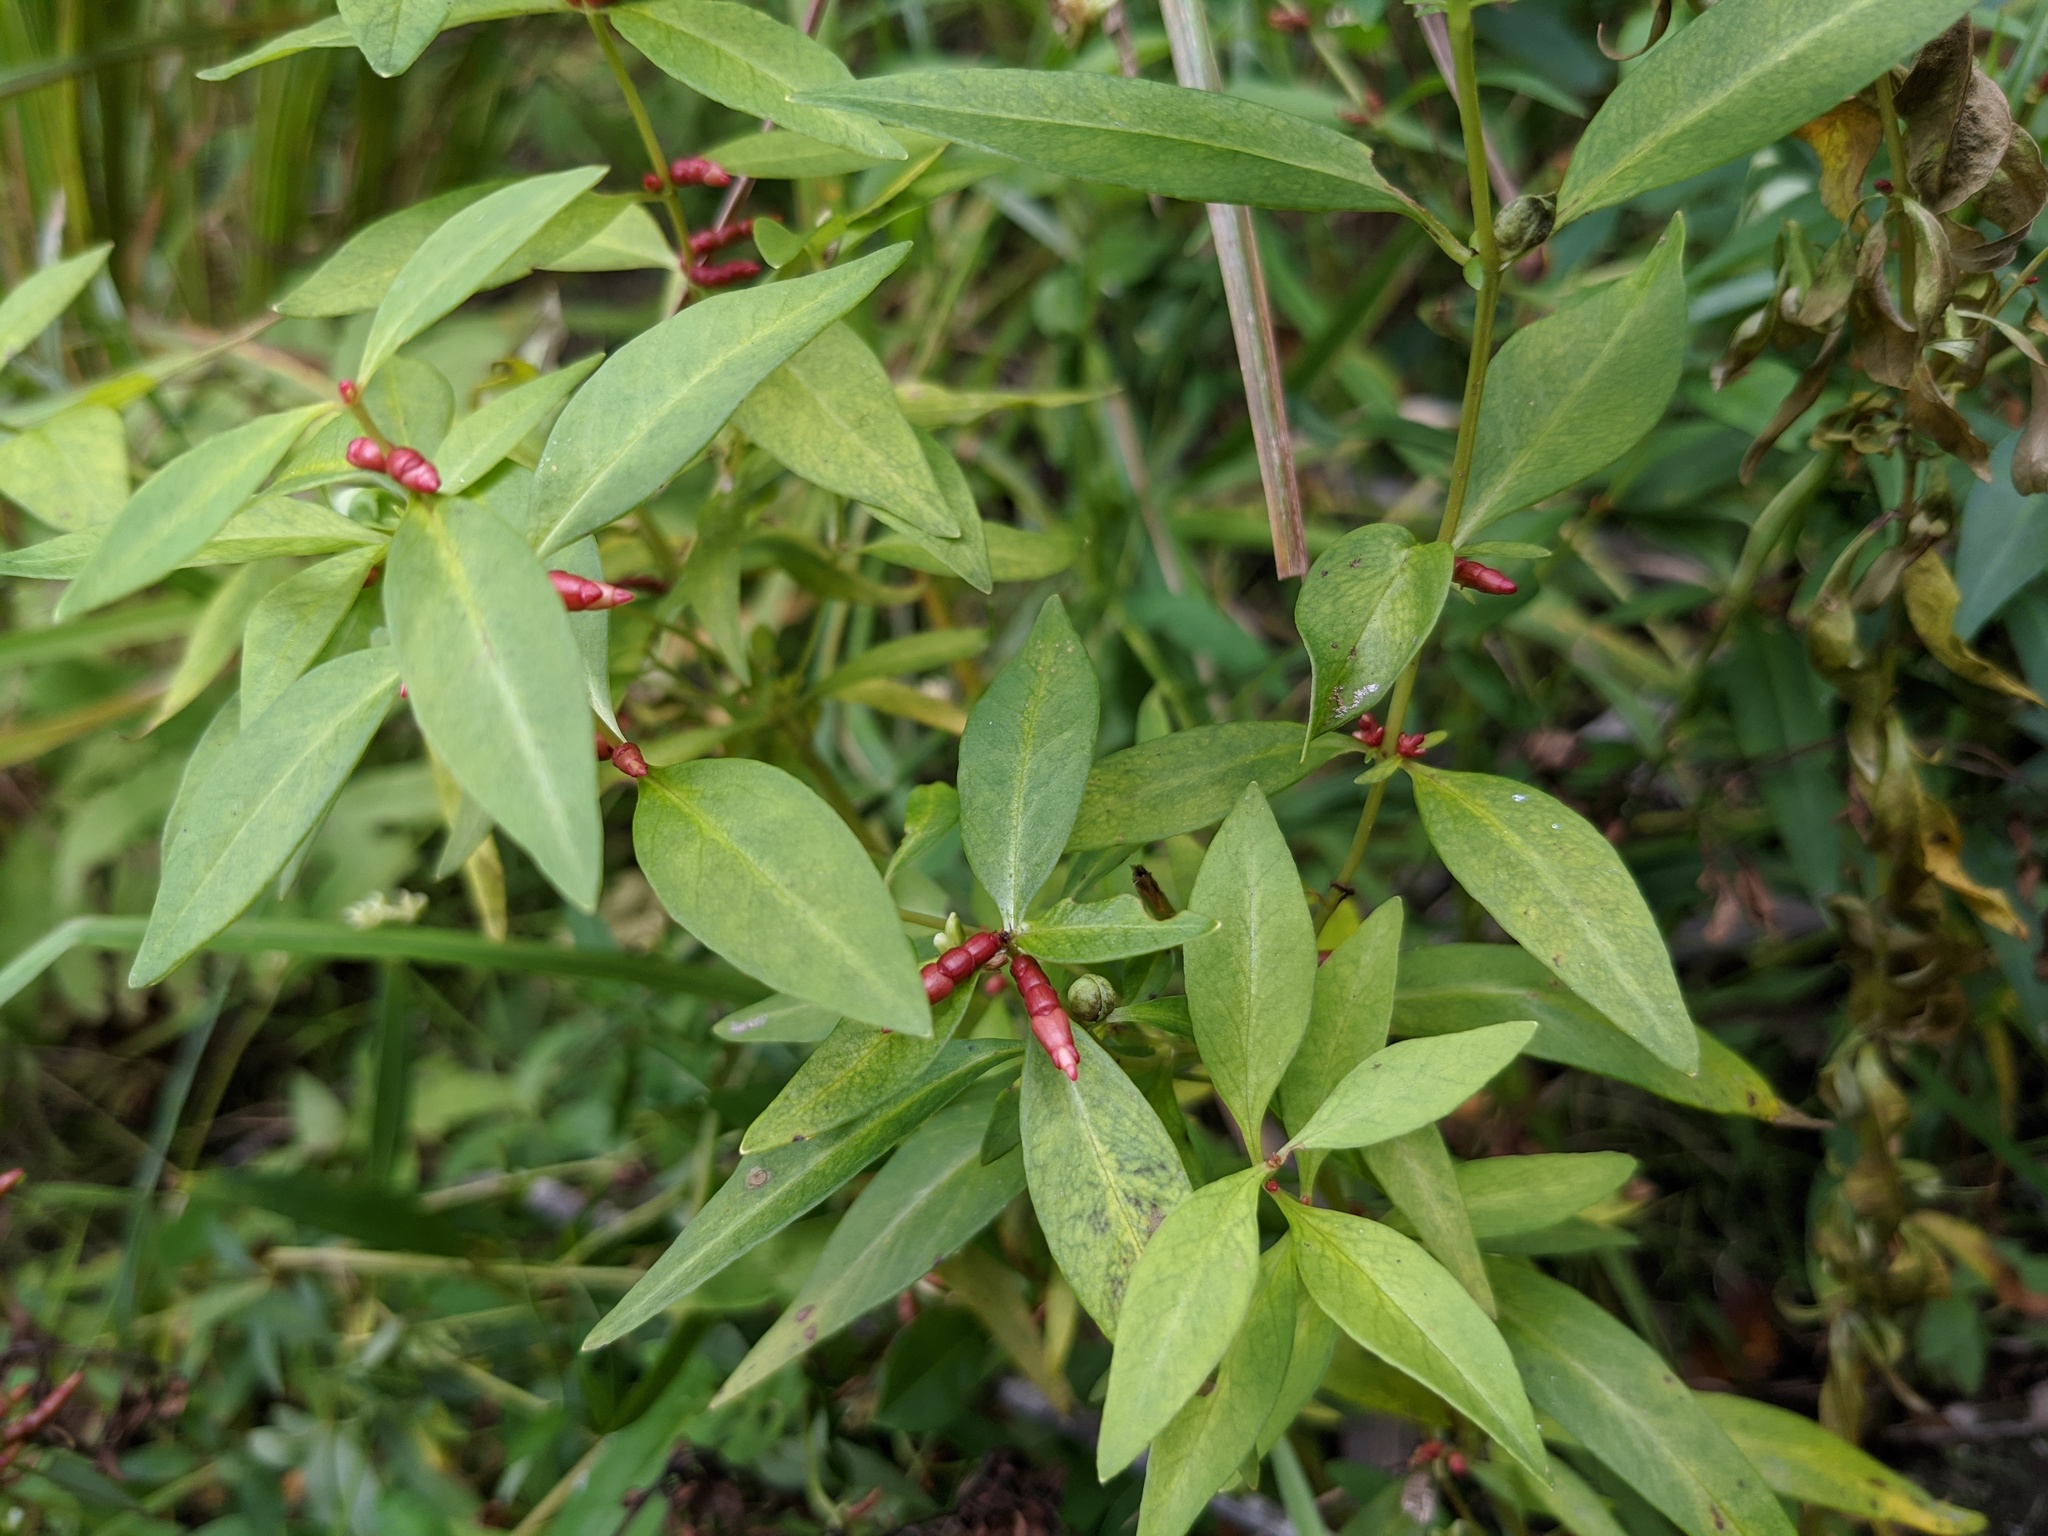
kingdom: Plantae
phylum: Tracheophyta
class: Magnoliopsida
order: Ericales
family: Primulaceae
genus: Lysimachia
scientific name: Lysimachia terrestris
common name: Lake loosestrife
